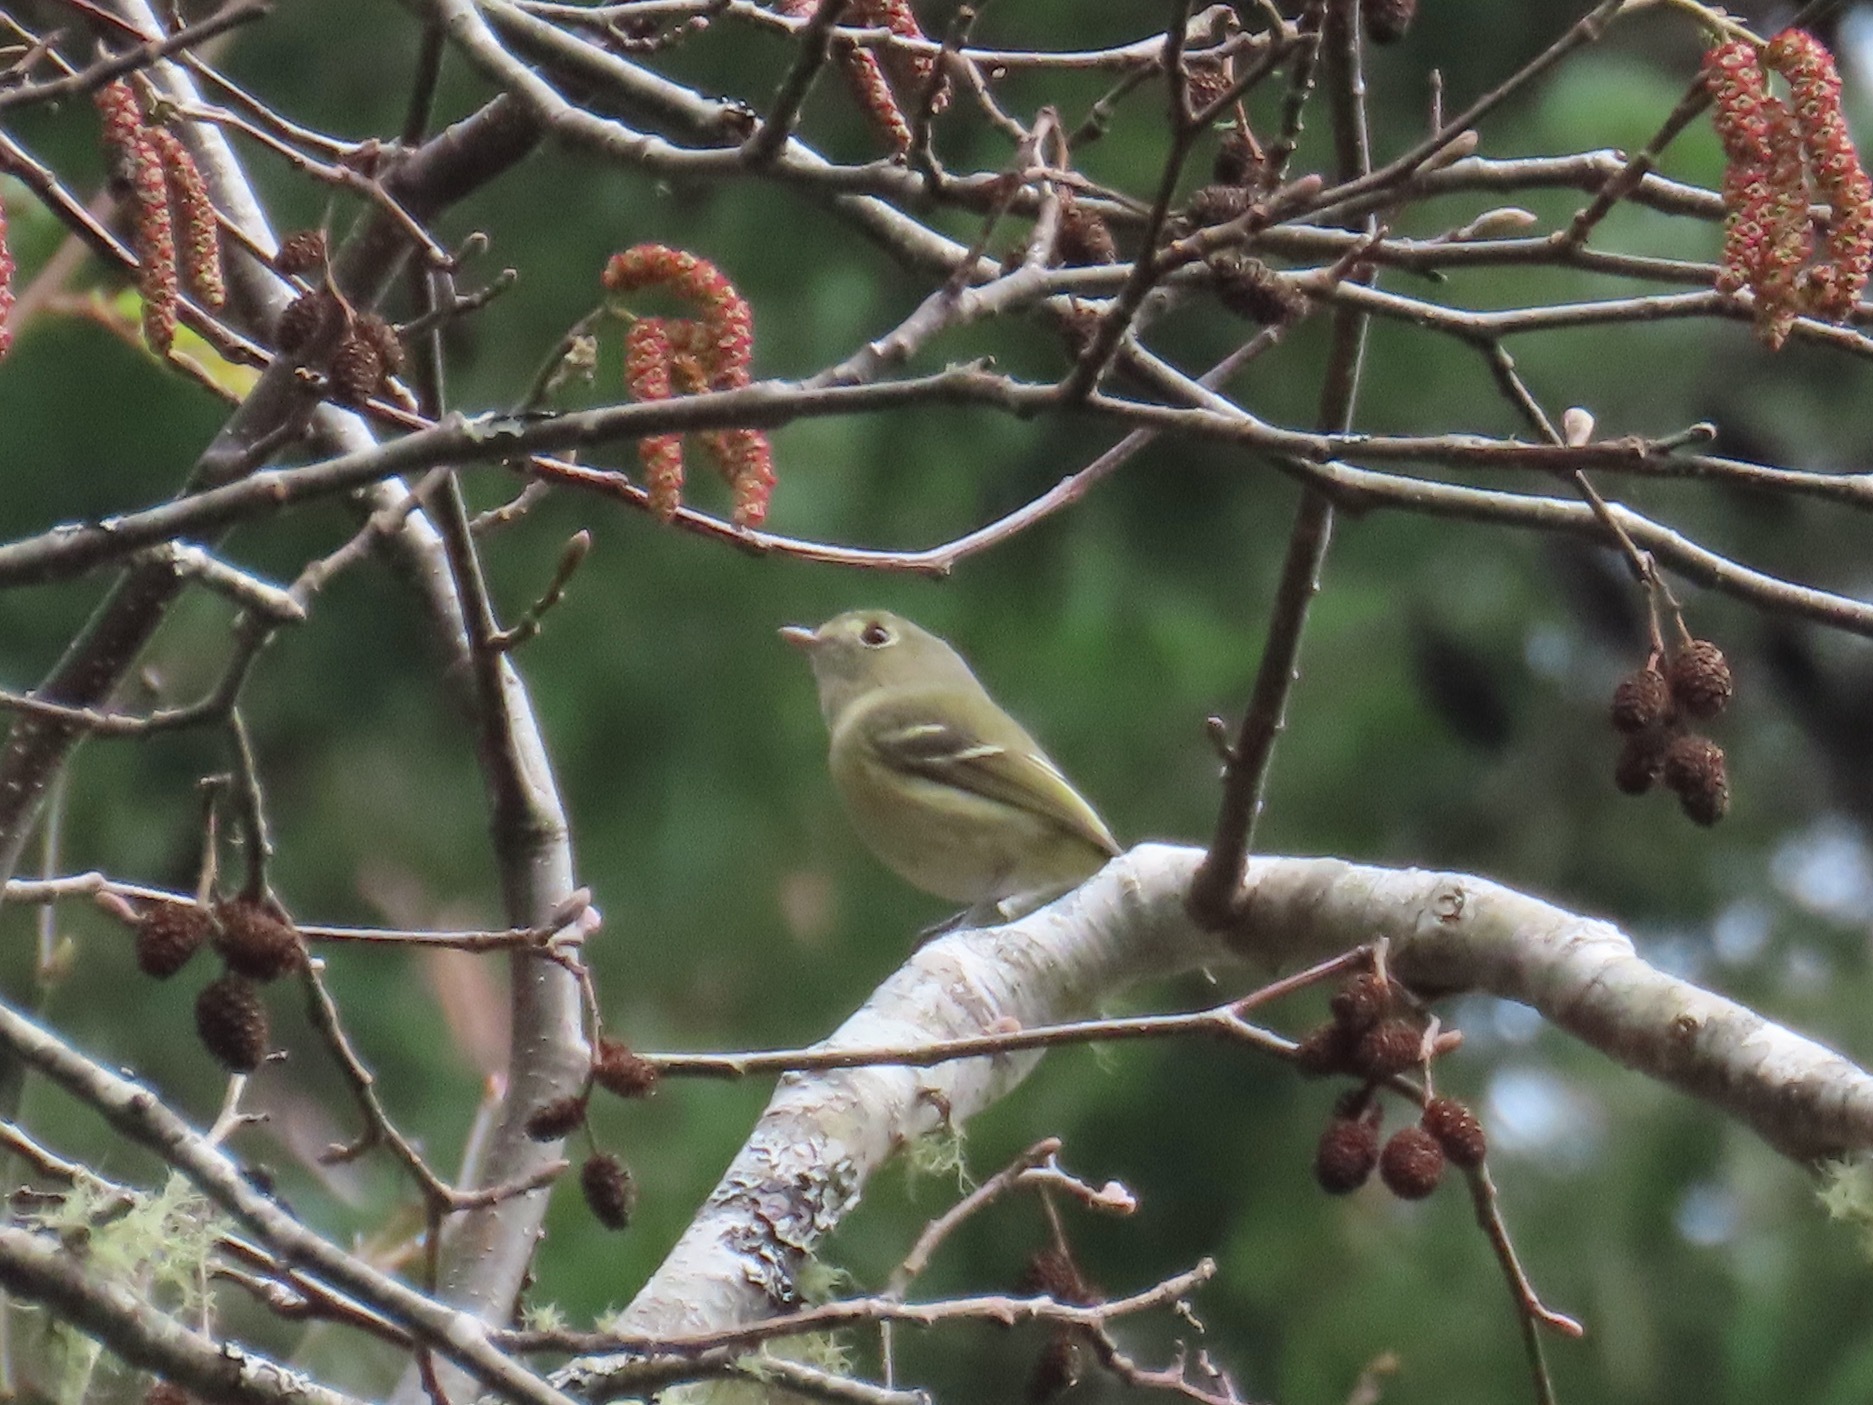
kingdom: Animalia
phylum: Chordata
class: Aves
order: Passeriformes
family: Vireonidae
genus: Vireo
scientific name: Vireo huttoni
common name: Hutton's vireo
